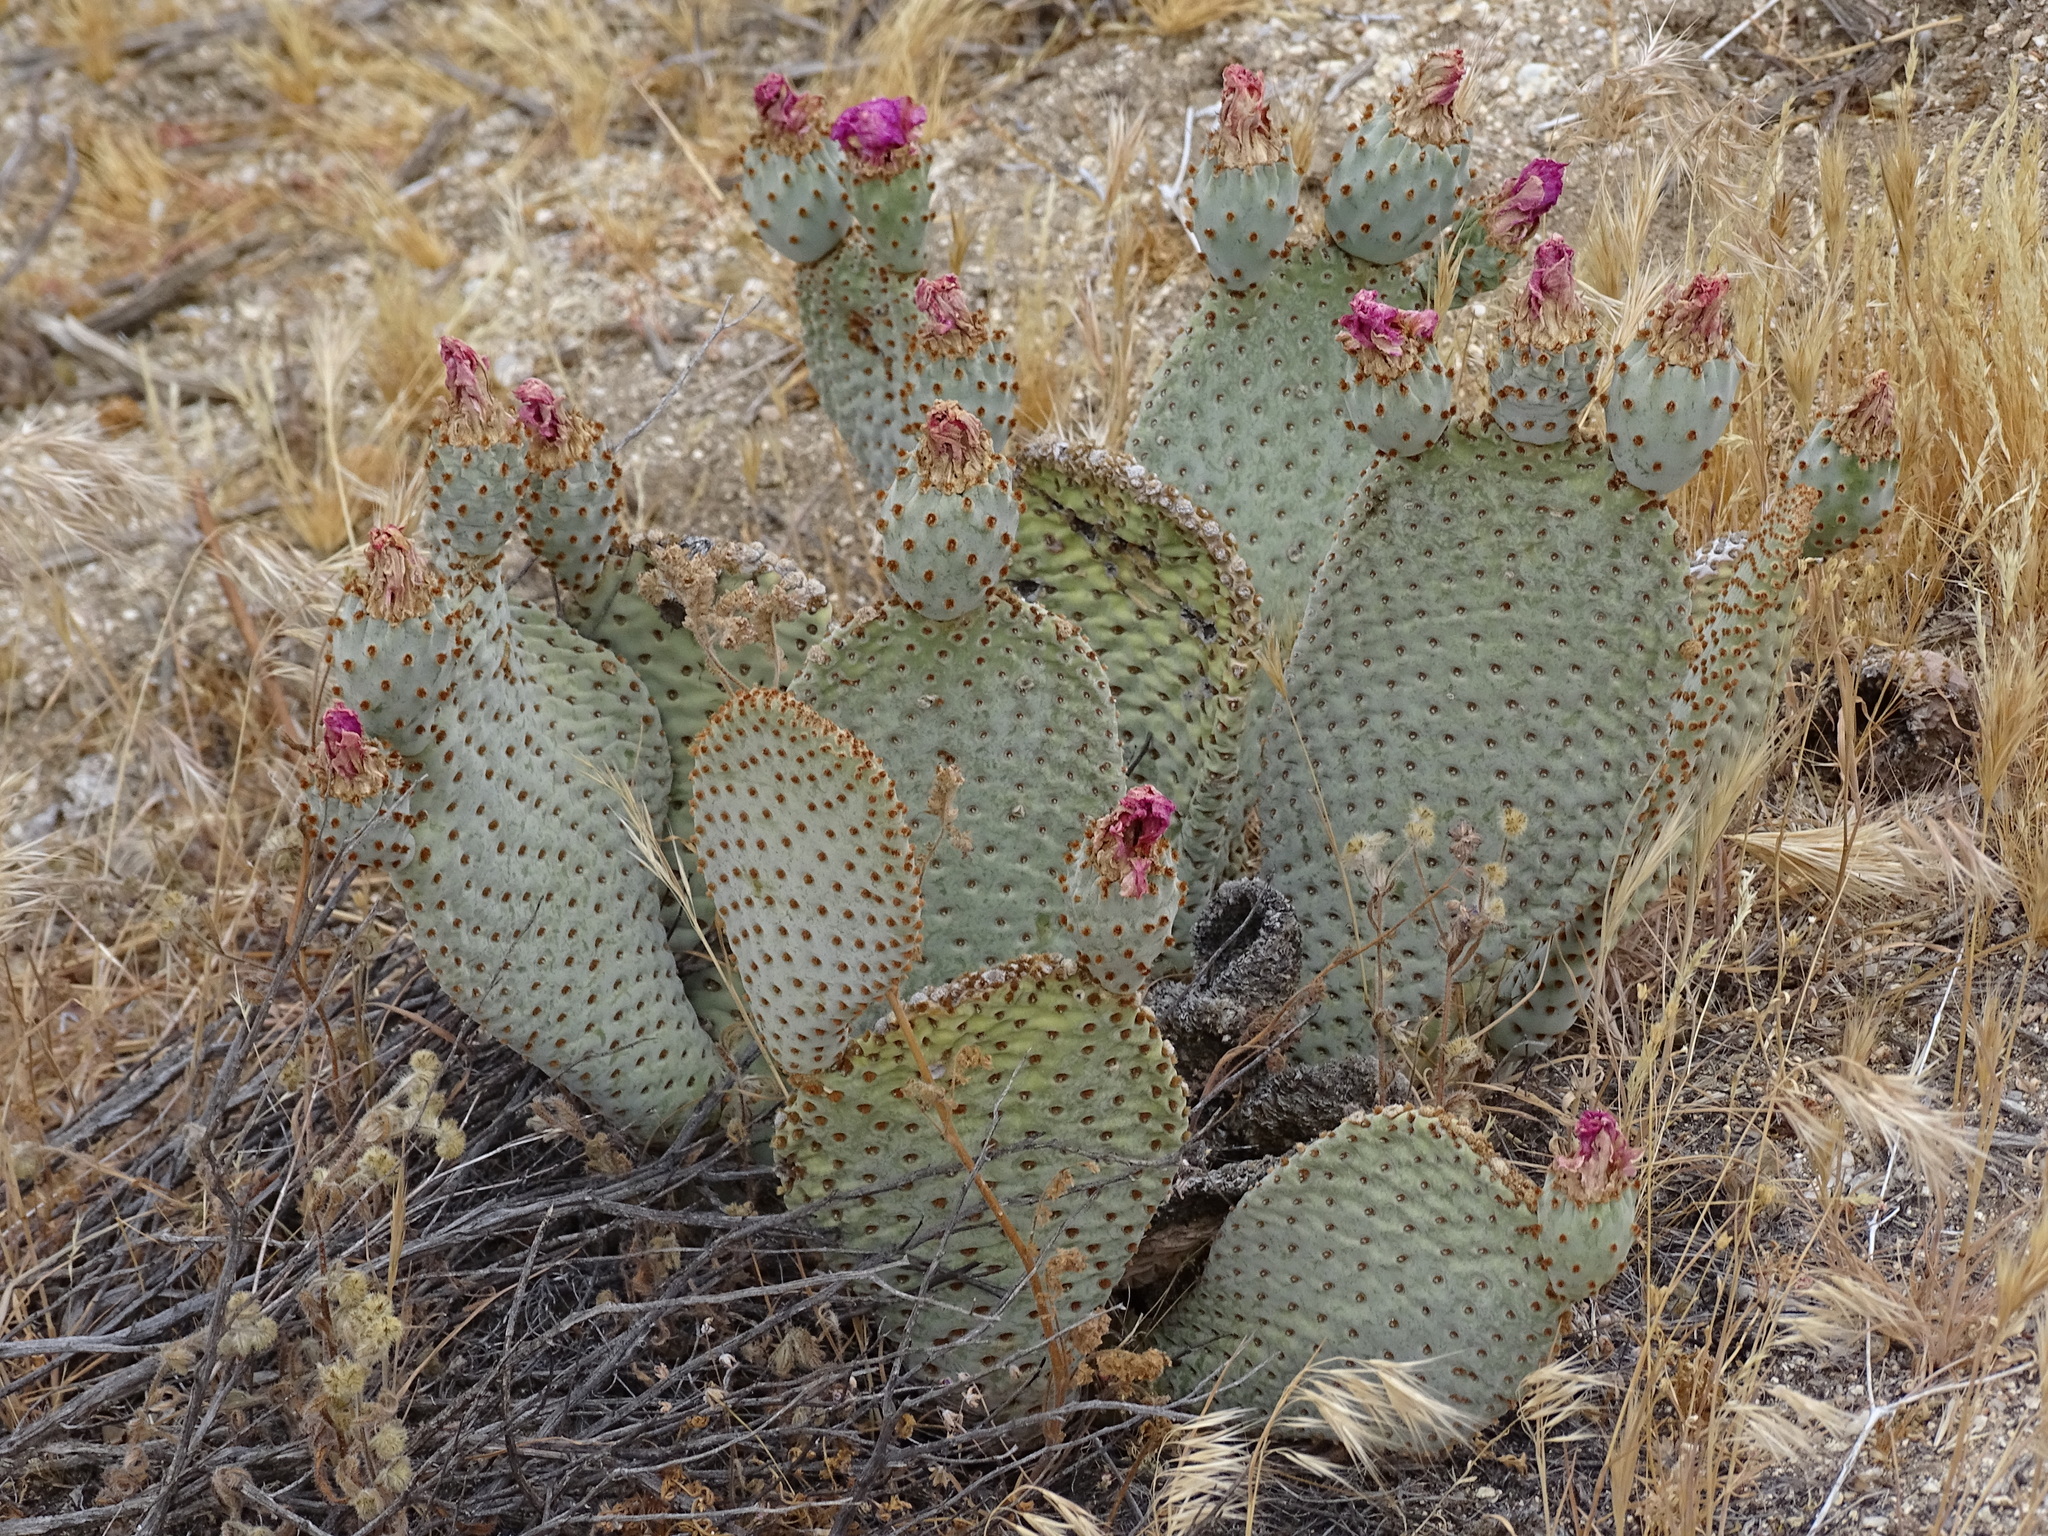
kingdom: Plantae
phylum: Tracheophyta
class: Magnoliopsida
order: Caryophyllales
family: Cactaceae
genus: Opuntia
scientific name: Opuntia basilaris
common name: Beavertail prickly-pear
